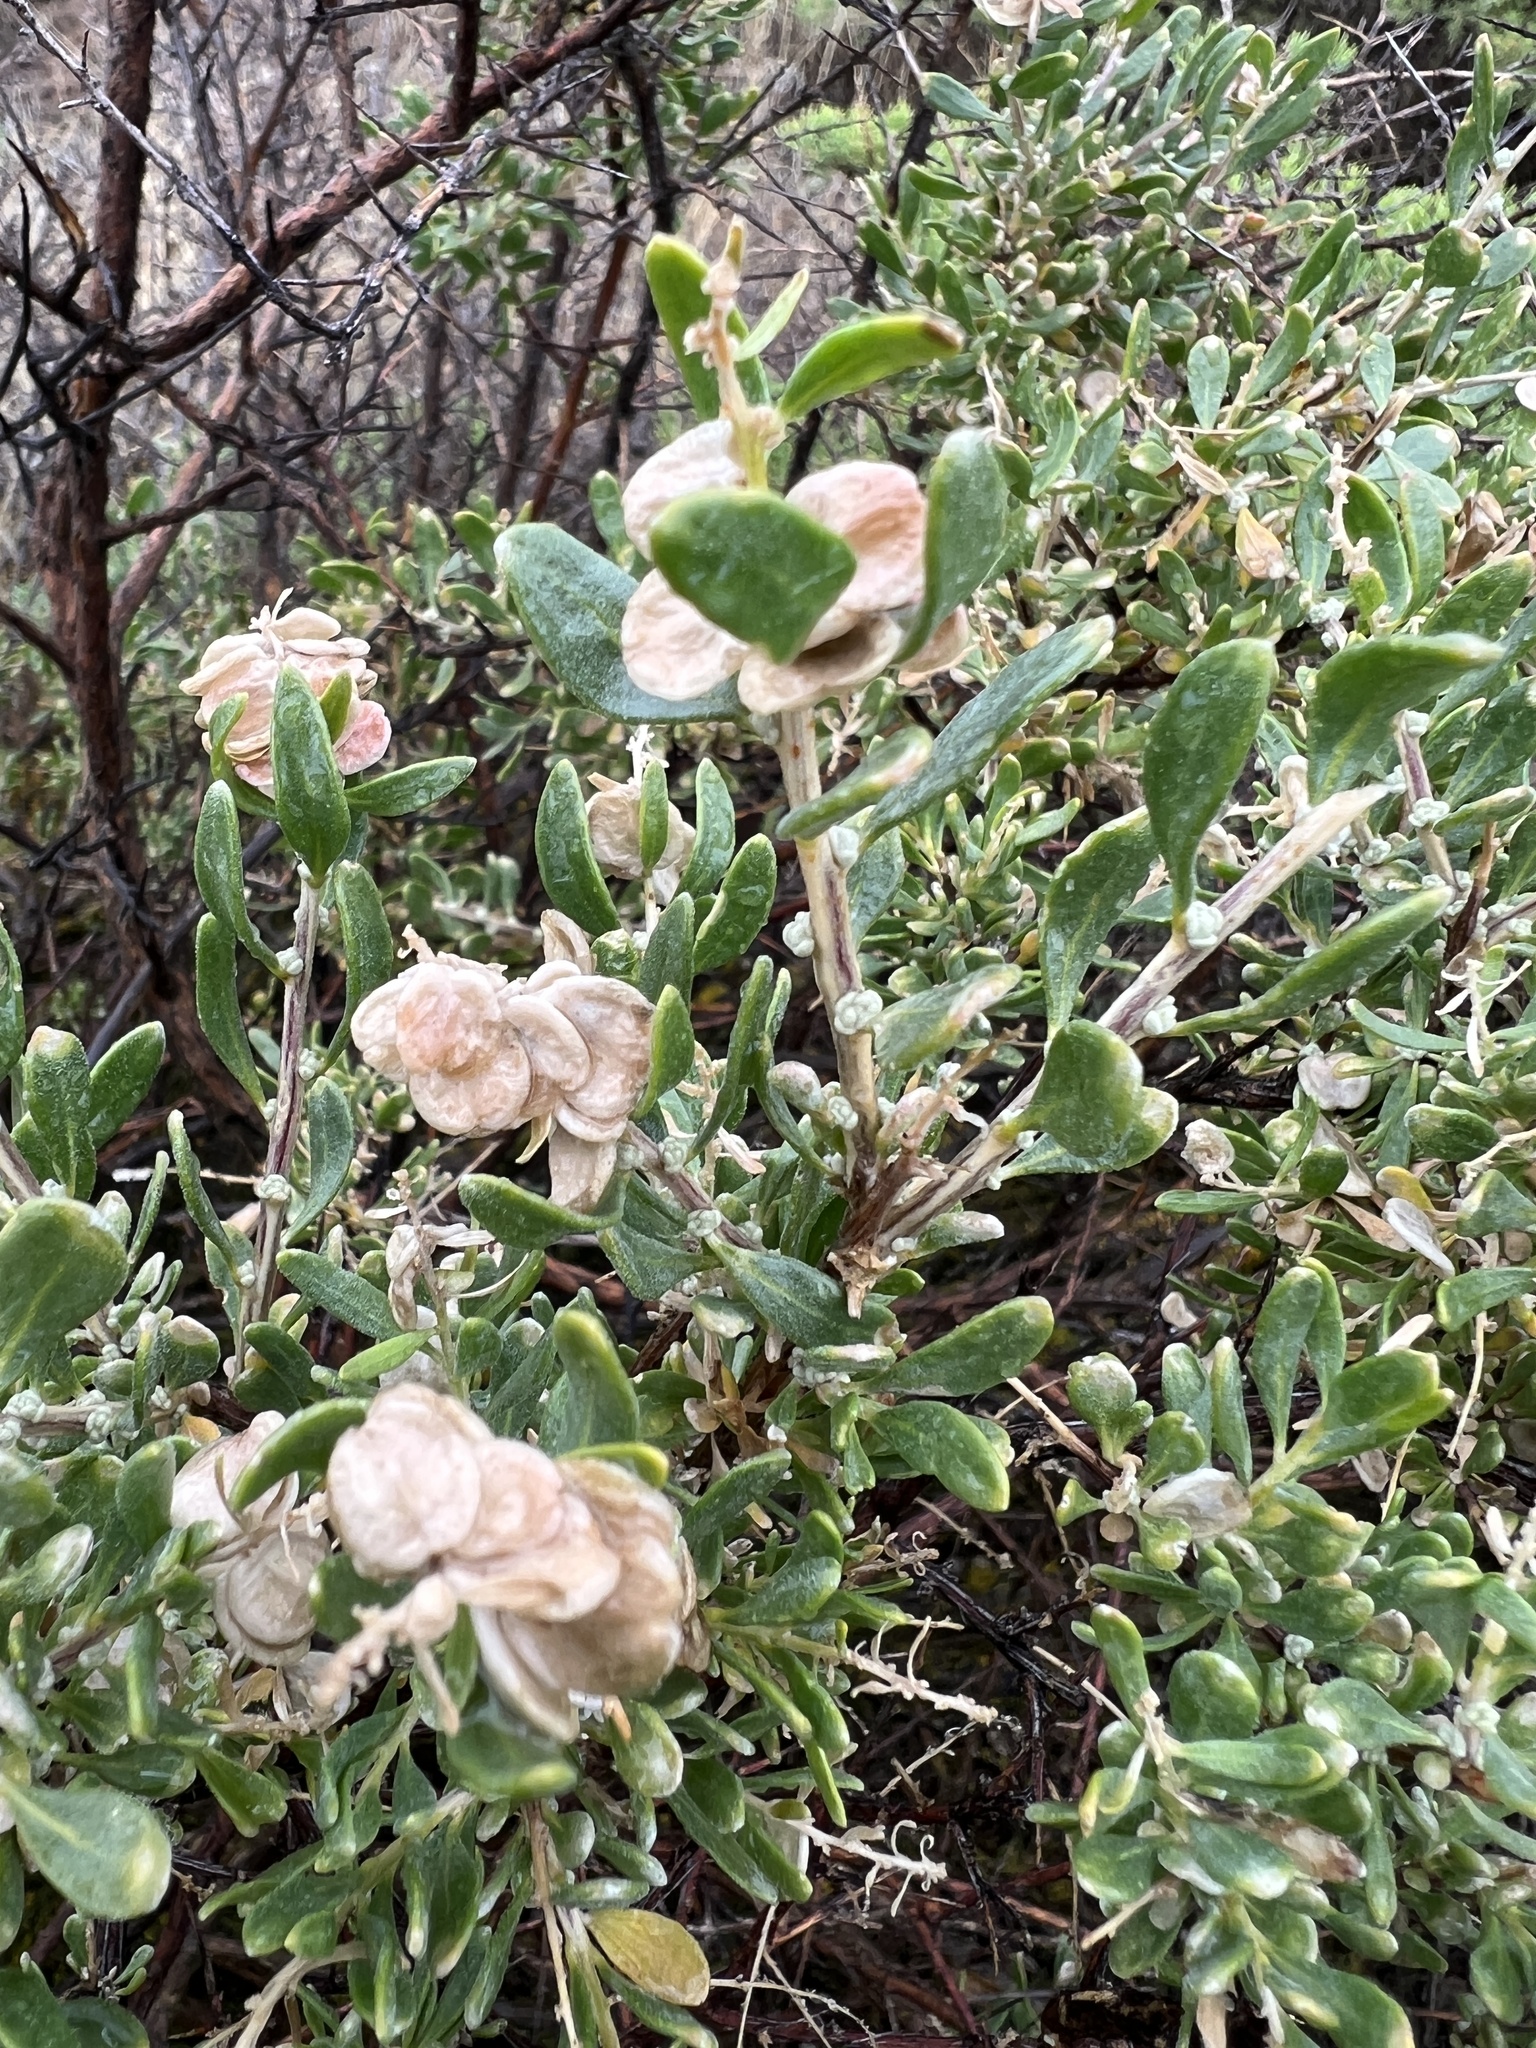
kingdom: Plantae
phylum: Tracheophyta
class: Magnoliopsida
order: Caryophyllales
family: Amaranthaceae
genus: Grayia
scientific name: Grayia spinosa
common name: Spiny hopsage
